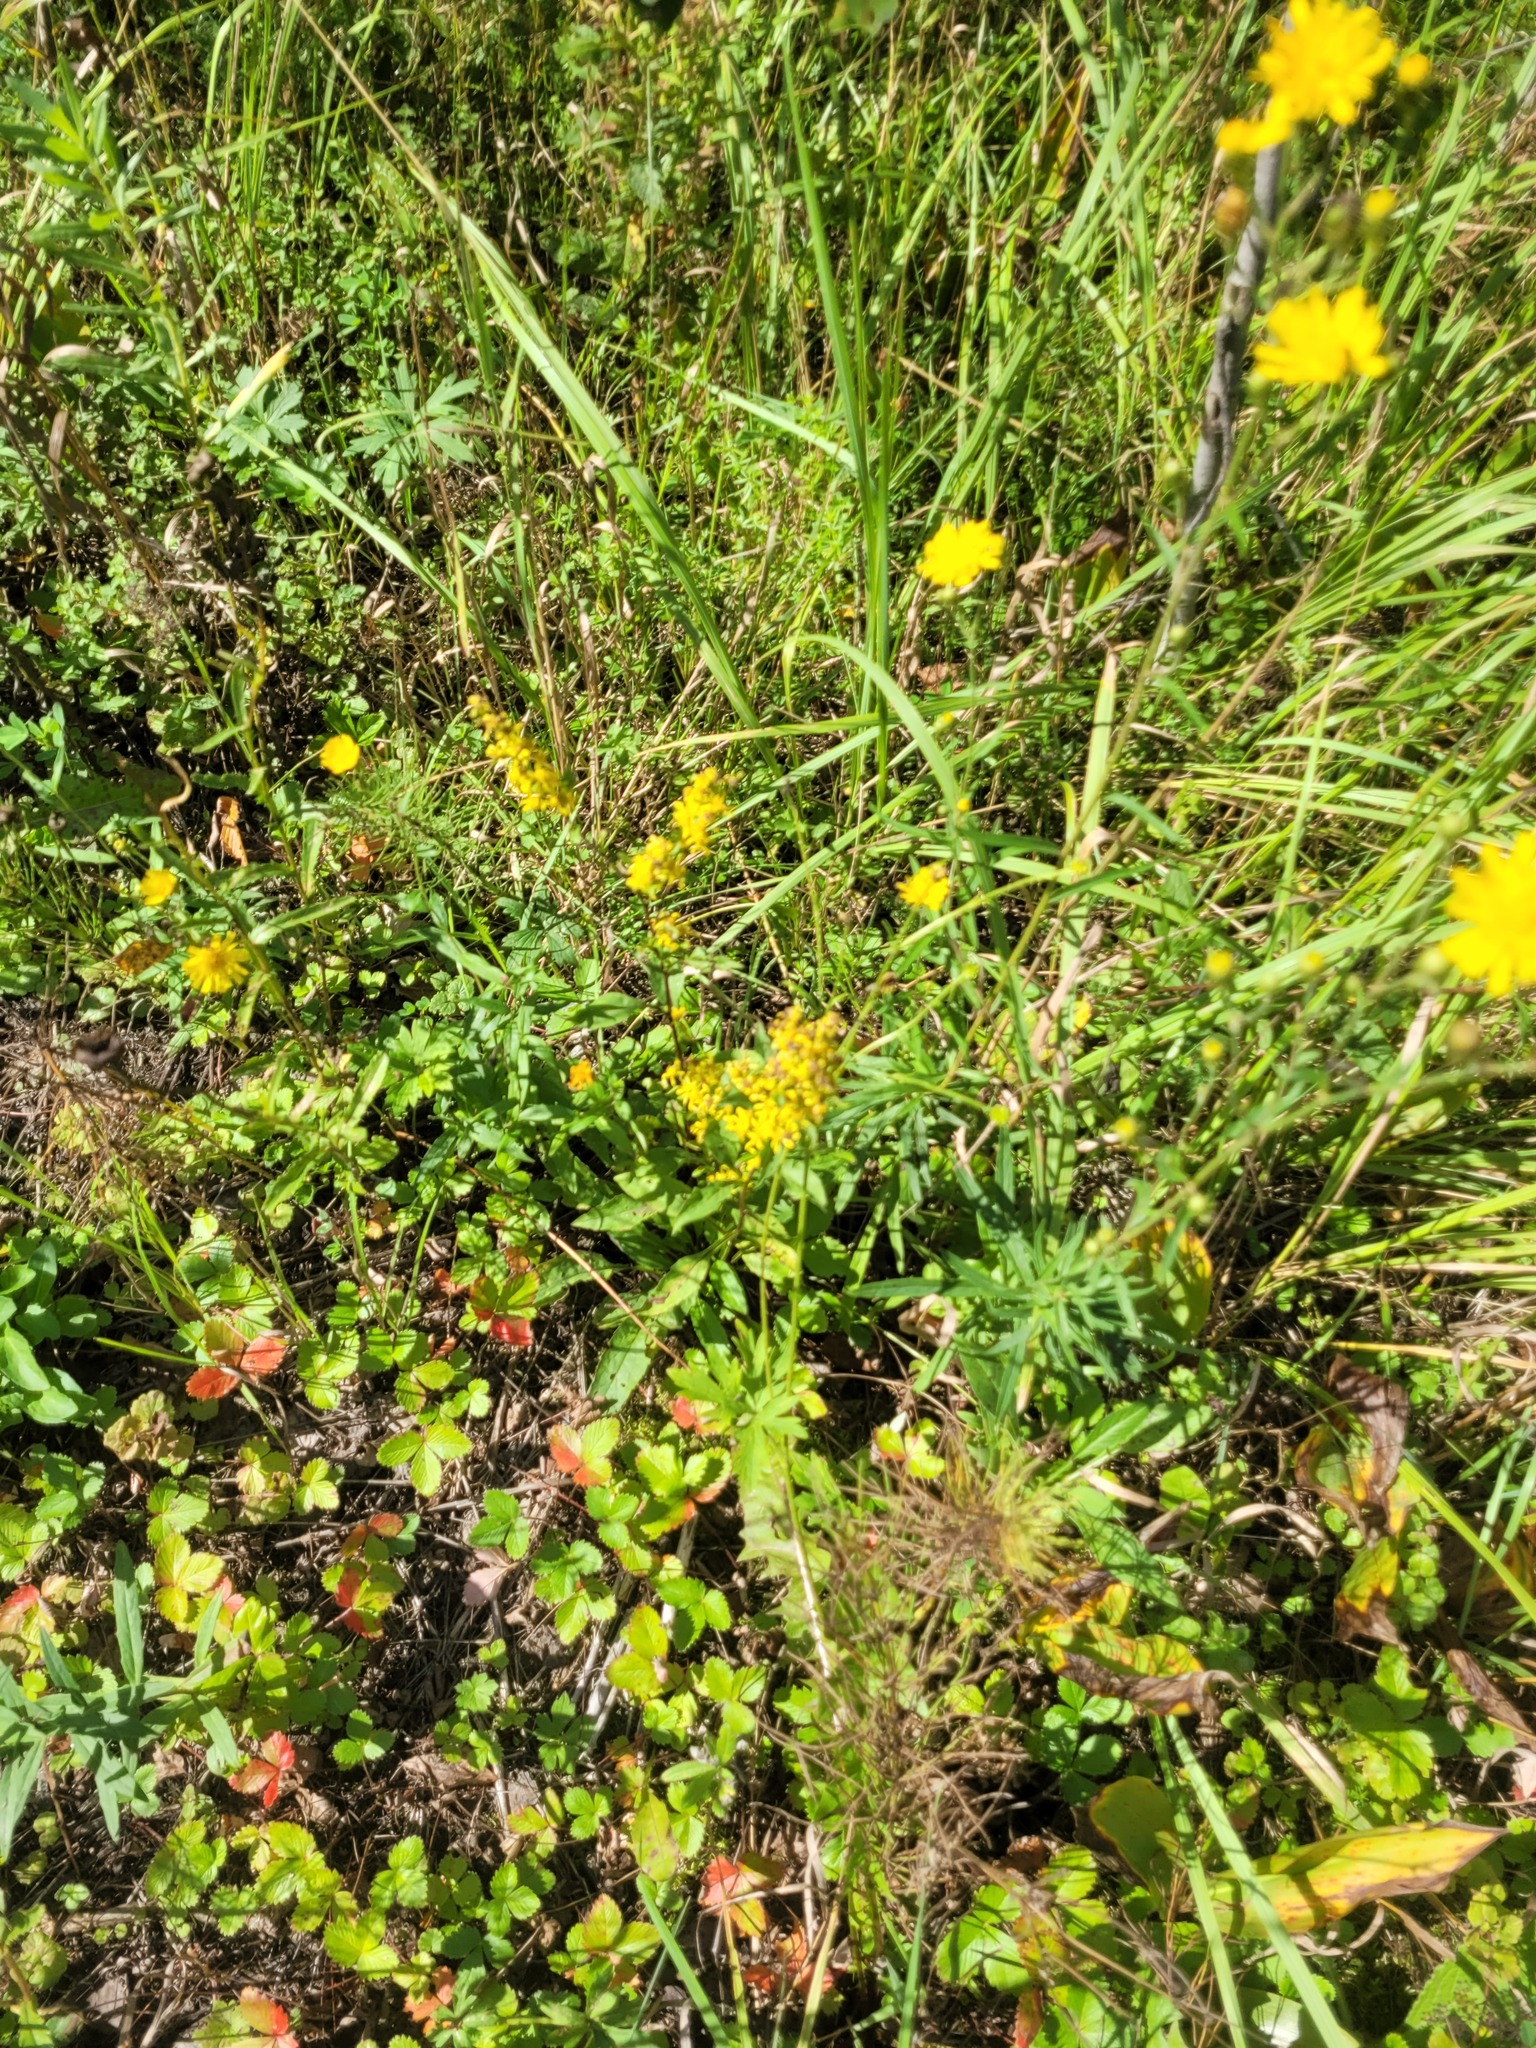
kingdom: Plantae
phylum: Tracheophyta
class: Magnoliopsida
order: Asterales
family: Asteraceae
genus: Solidago
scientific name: Solidago virgaurea
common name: Goldenrod
